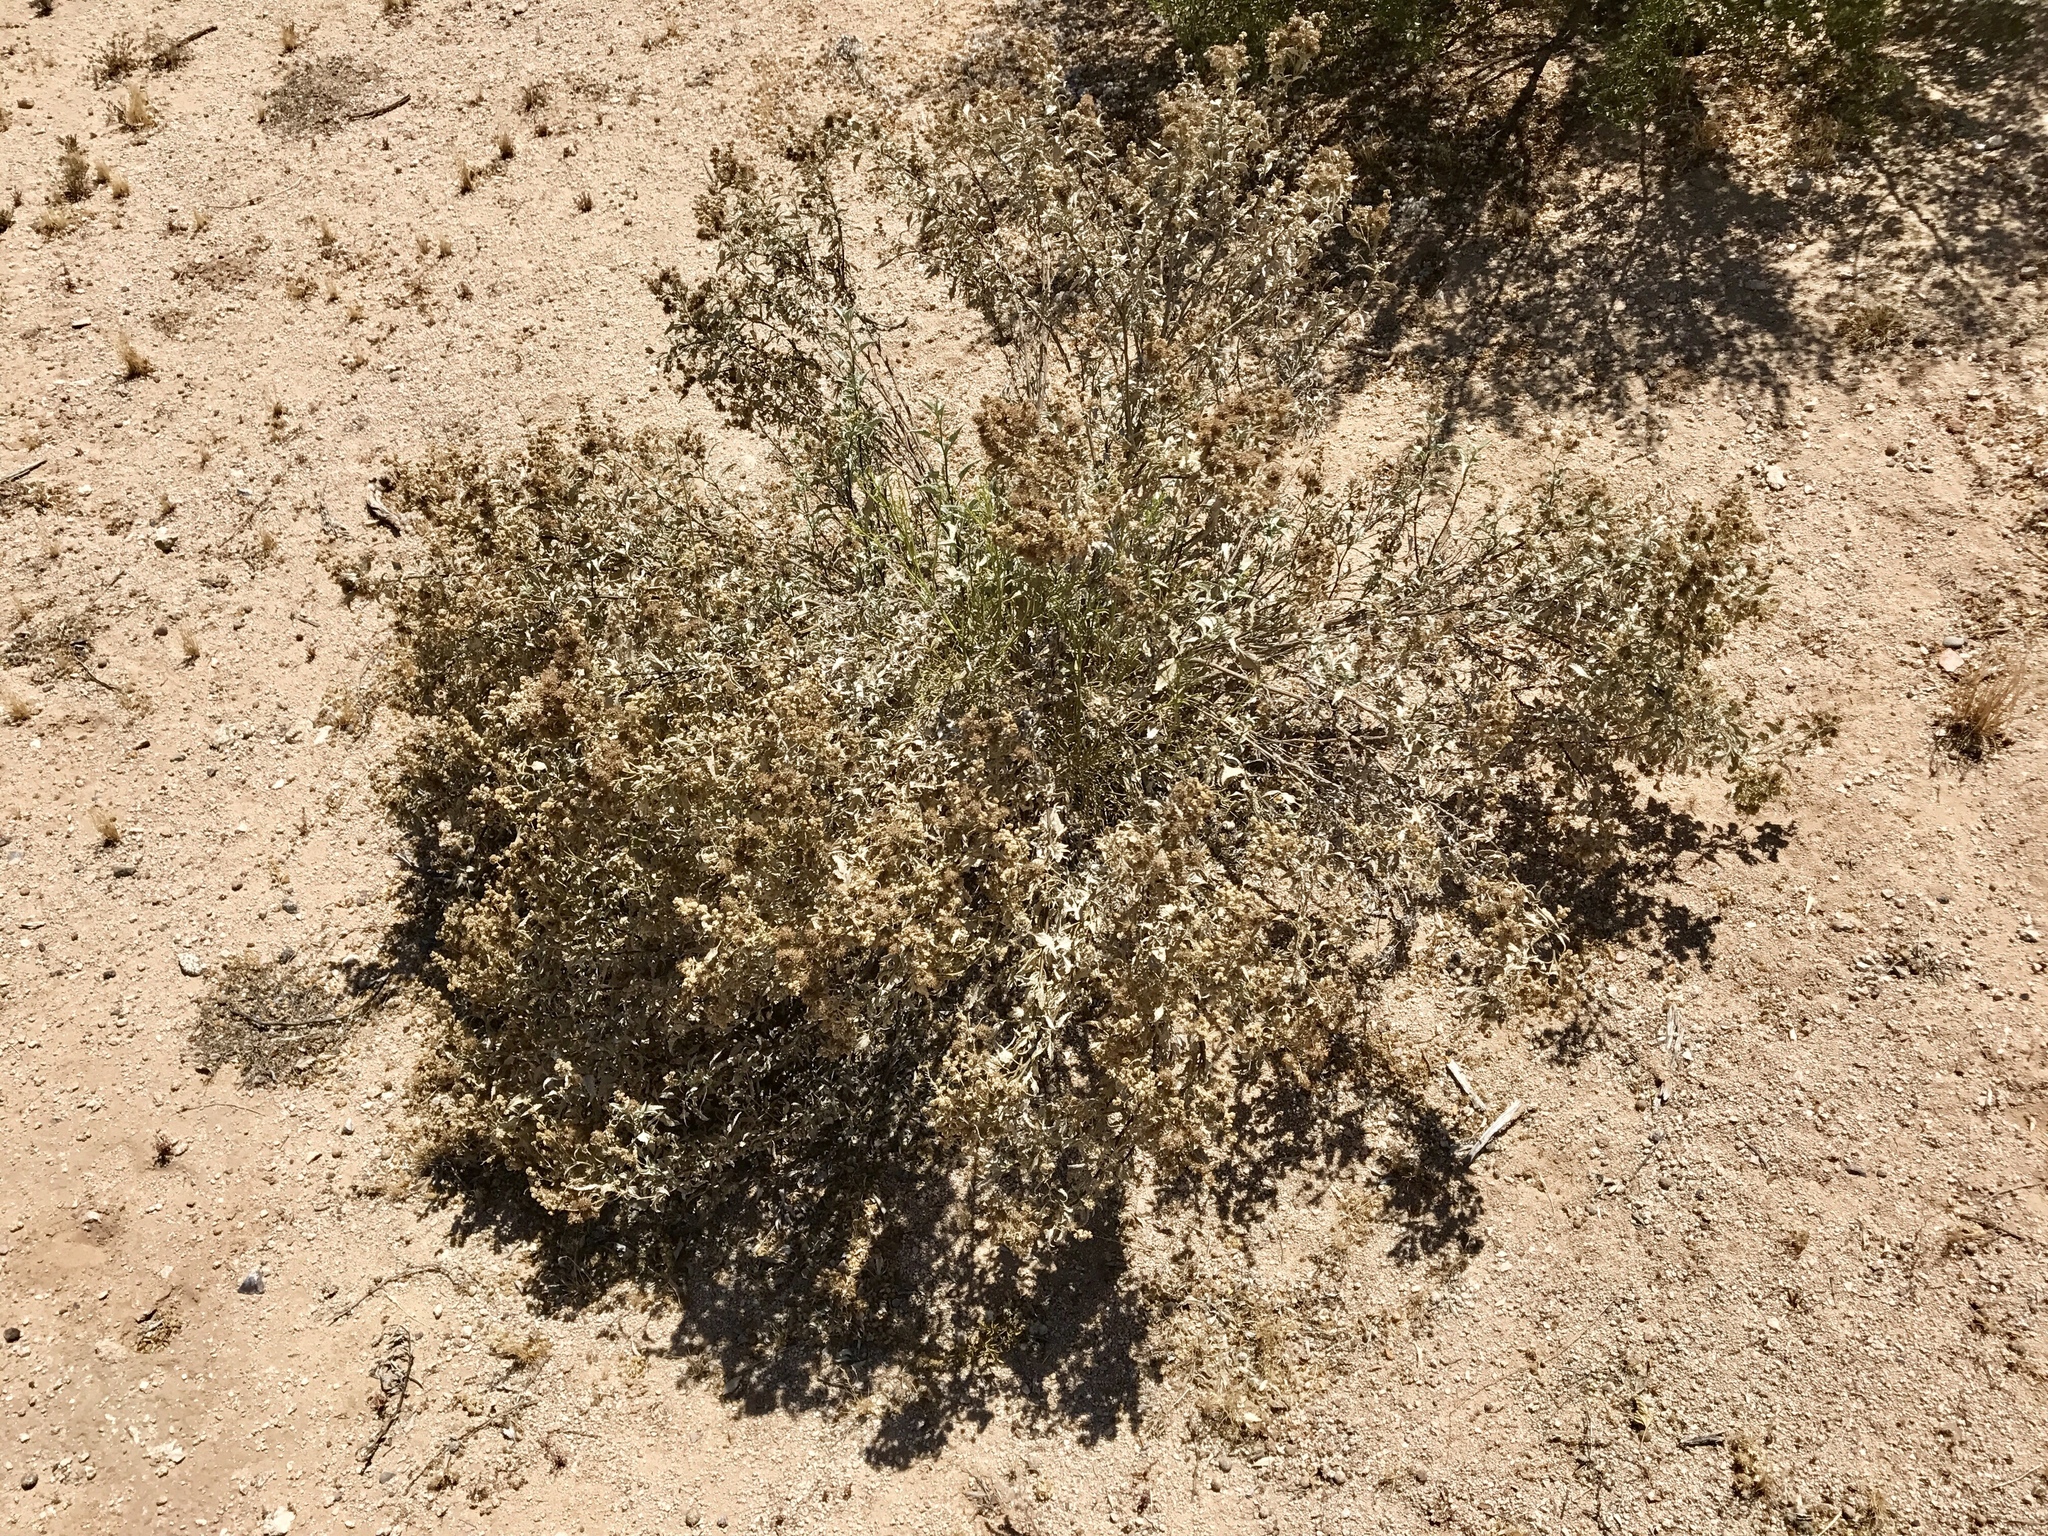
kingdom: Plantae
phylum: Tracheophyta
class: Magnoliopsida
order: Asterales
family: Asteraceae
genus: Ambrosia
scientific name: Ambrosia deltoidea
